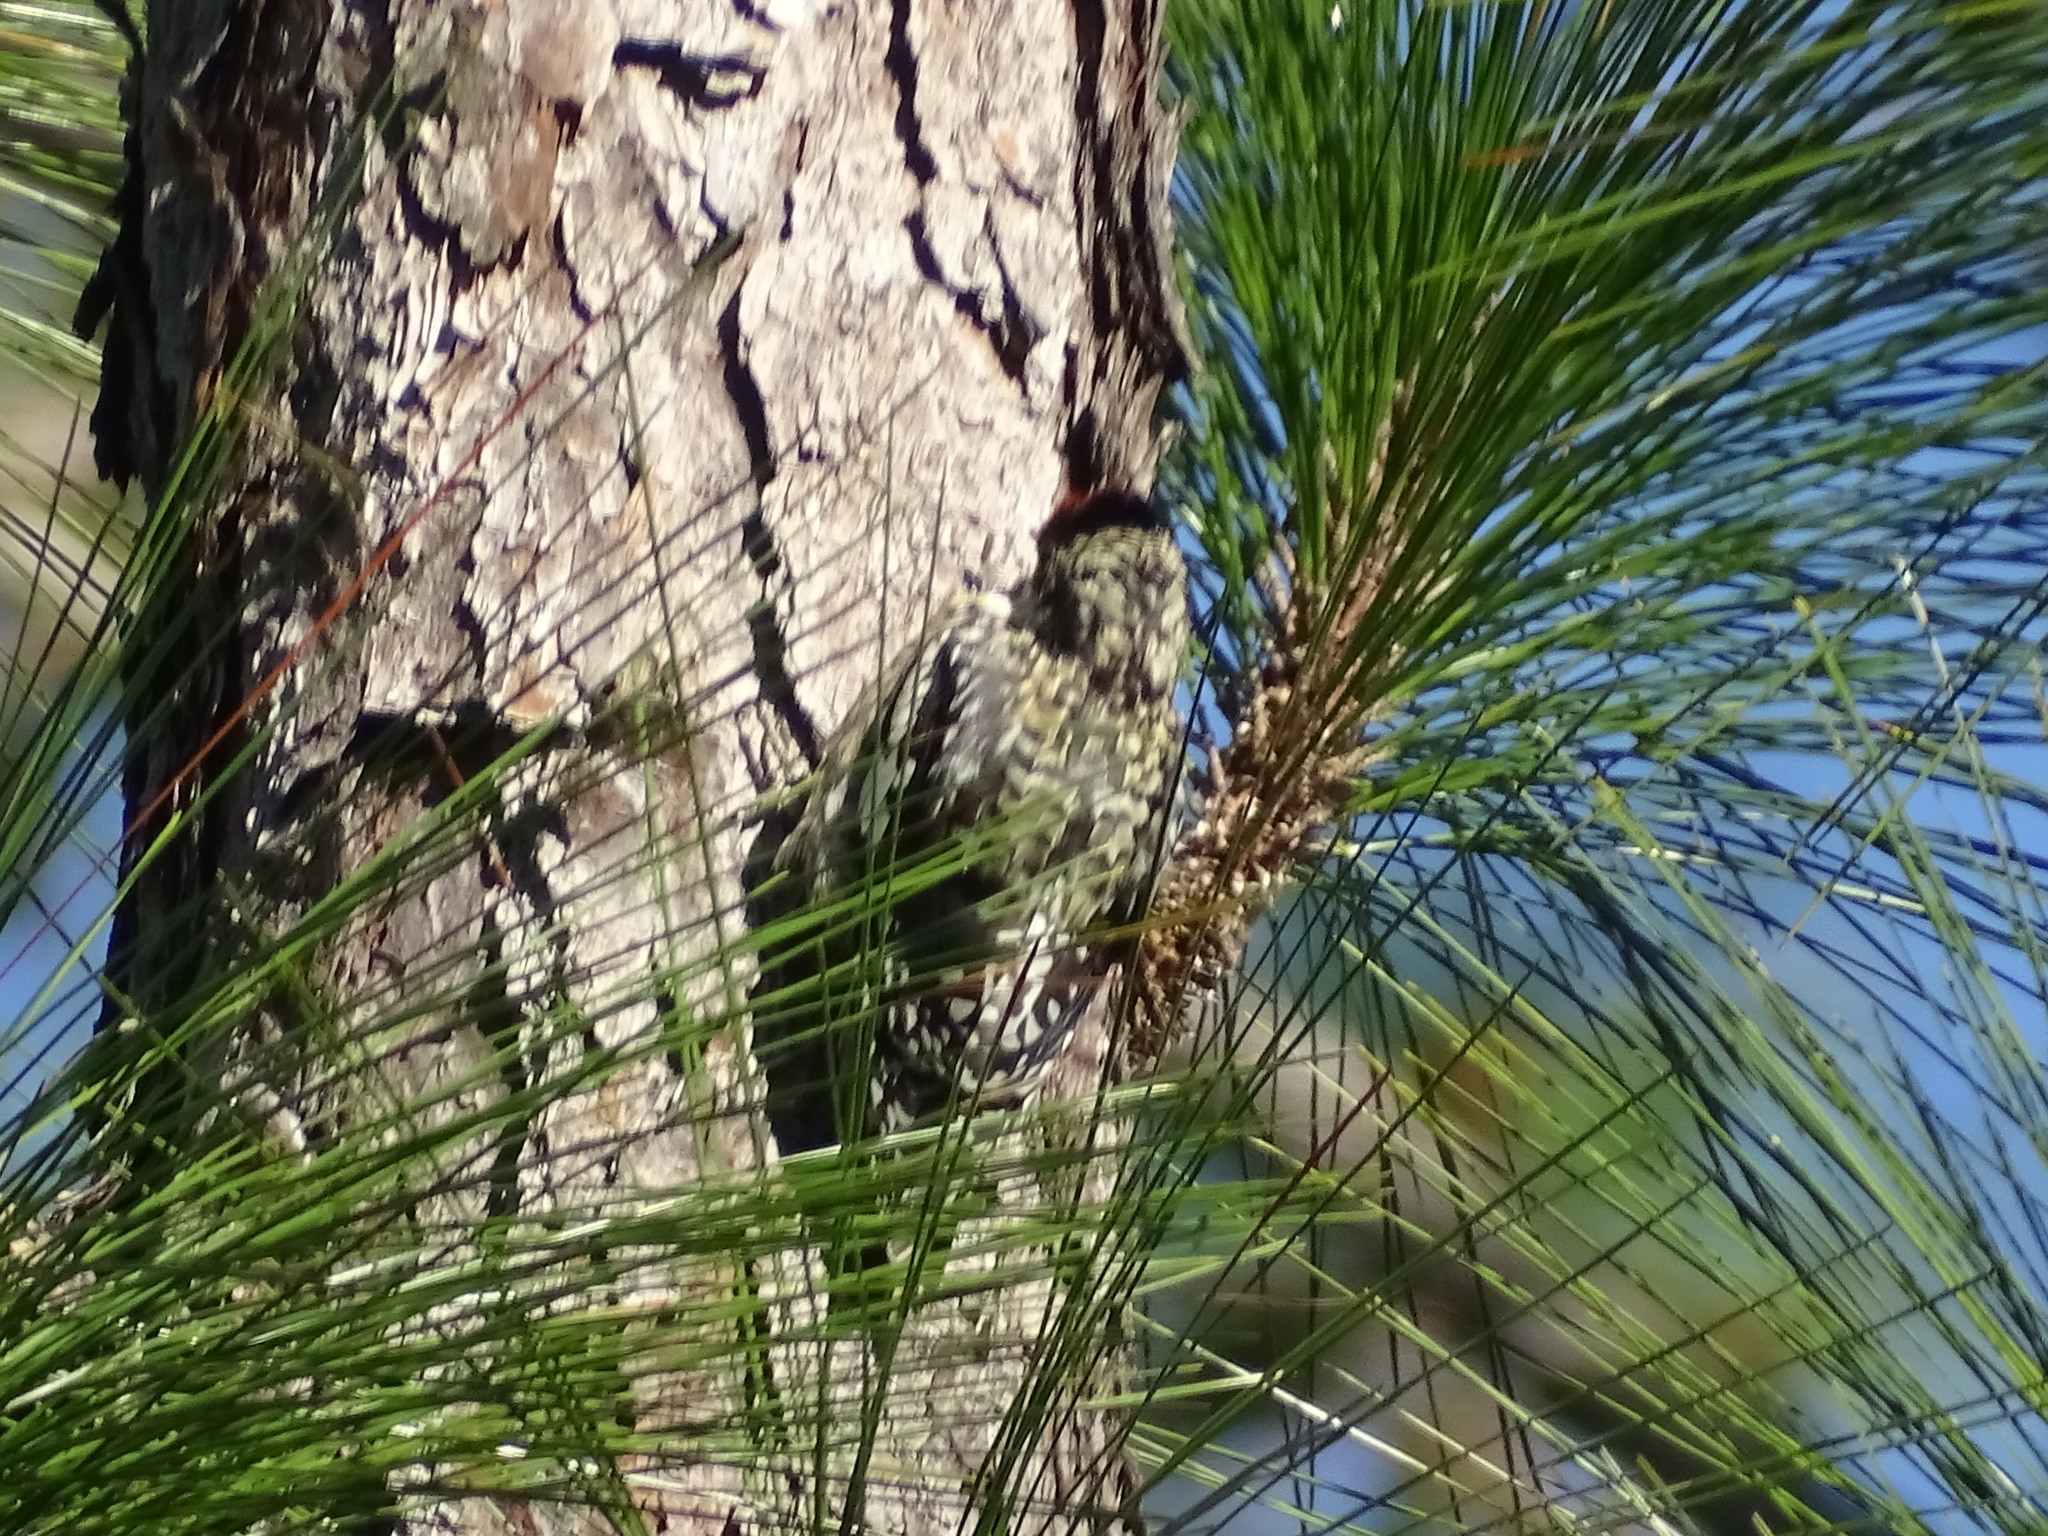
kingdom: Animalia
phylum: Chordata
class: Aves
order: Piciformes
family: Picidae
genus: Sphyrapicus
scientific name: Sphyrapicus varius
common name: Yellow-bellied sapsucker
